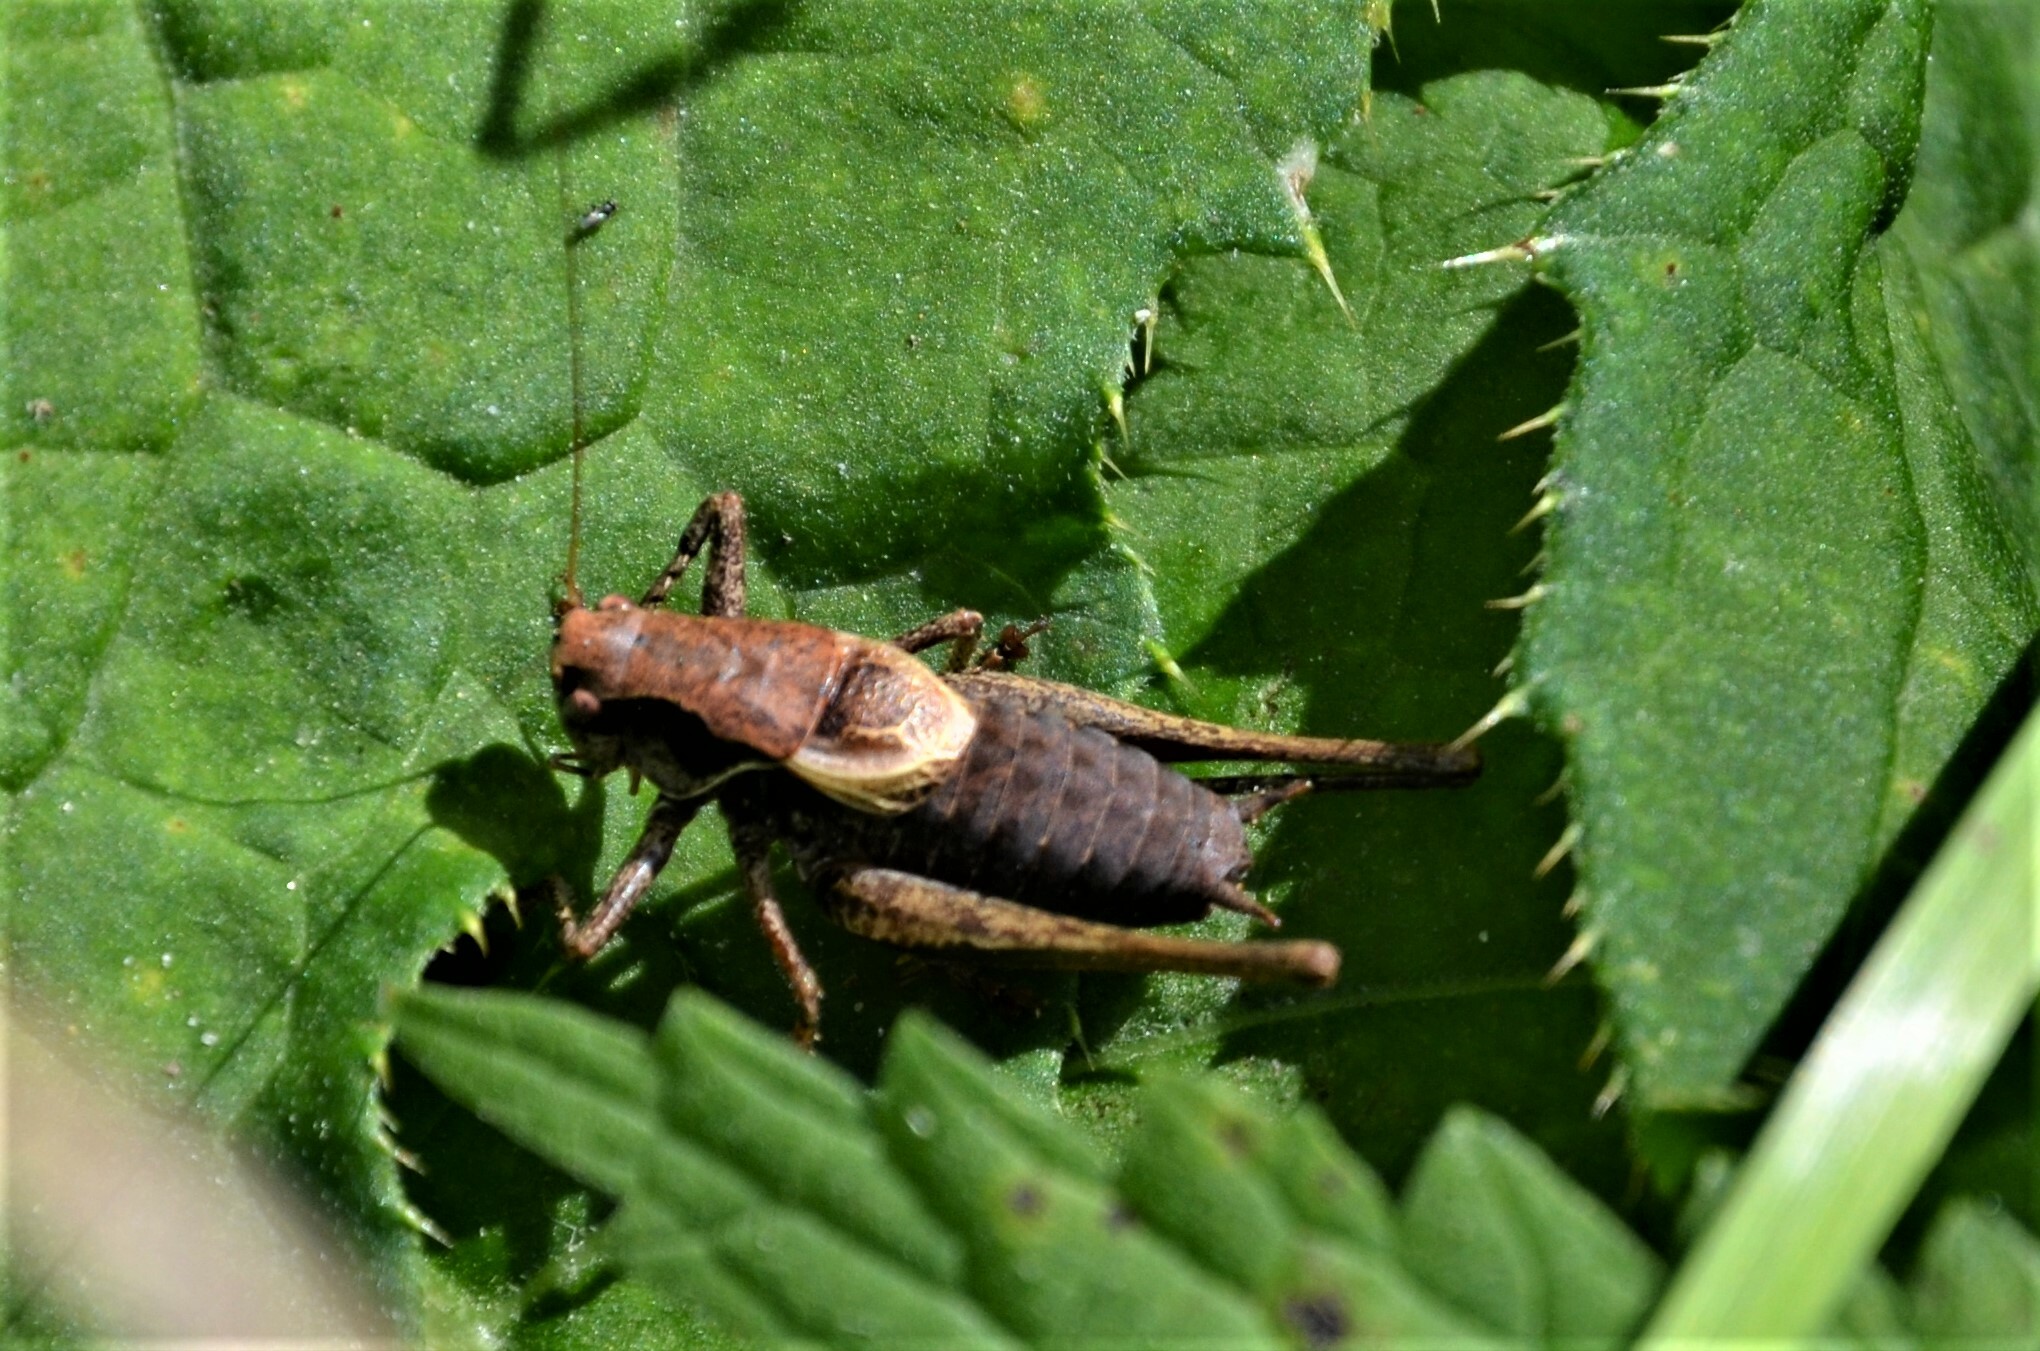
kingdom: Animalia
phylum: Arthropoda
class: Insecta
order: Orthoptera
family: Tettigoniidae
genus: Pholidoptera
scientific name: Pholidoptera griseoaptera
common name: Dark bush-cricket
